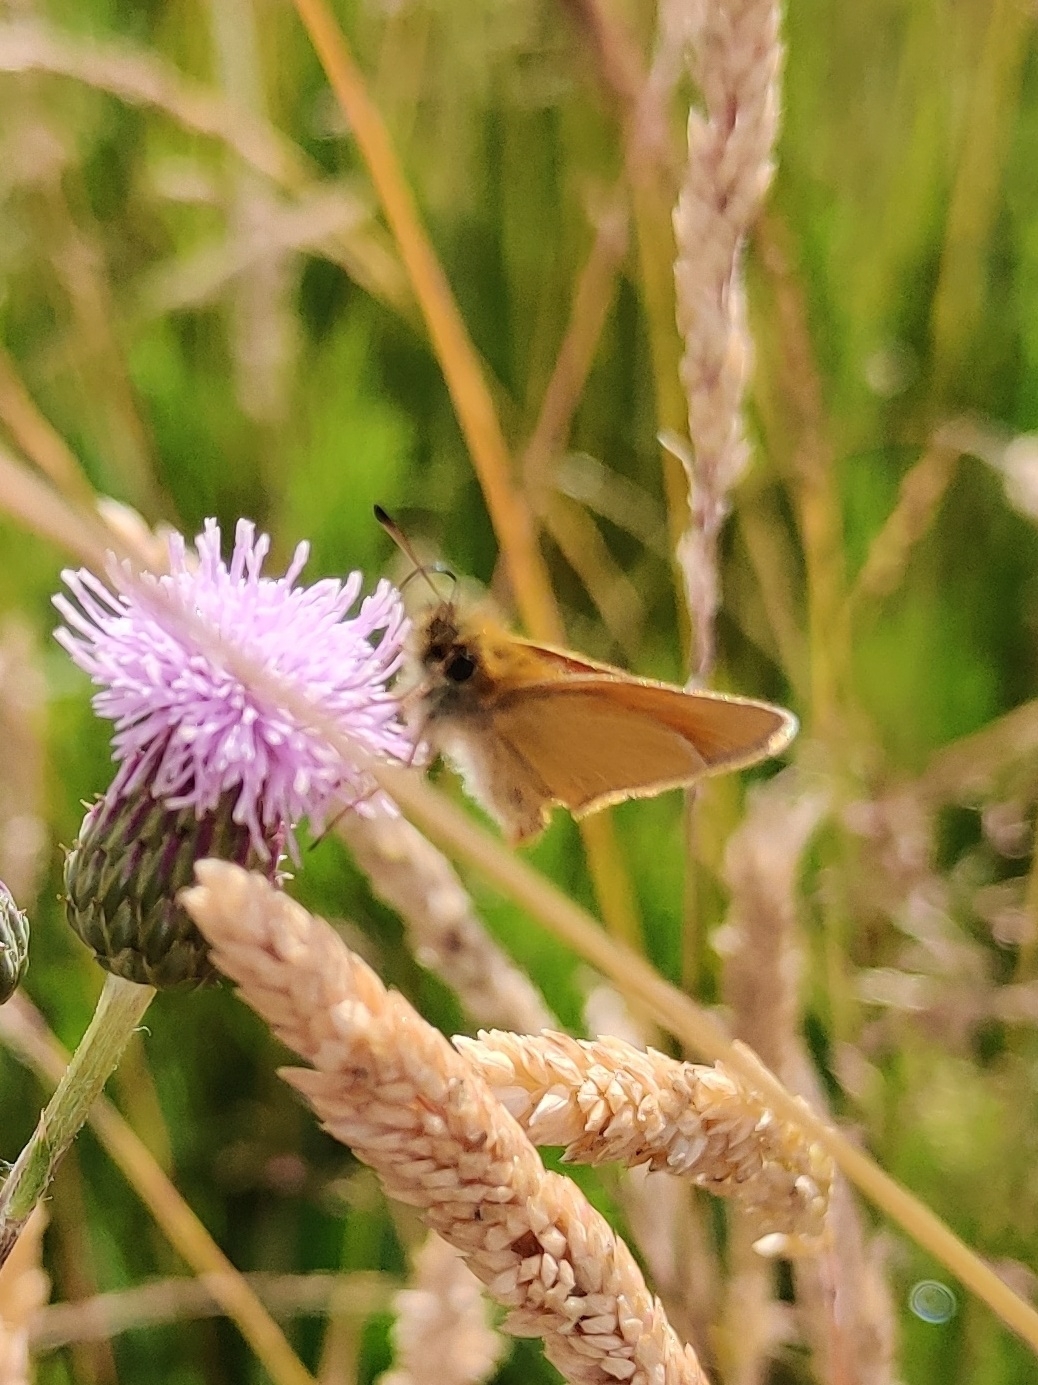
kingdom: Animalia
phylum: Arthropoda
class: Insecta
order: Lepidoptera
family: Hesperiidae
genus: Thymelicus
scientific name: Thymelicus lineola
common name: Essex skipper
